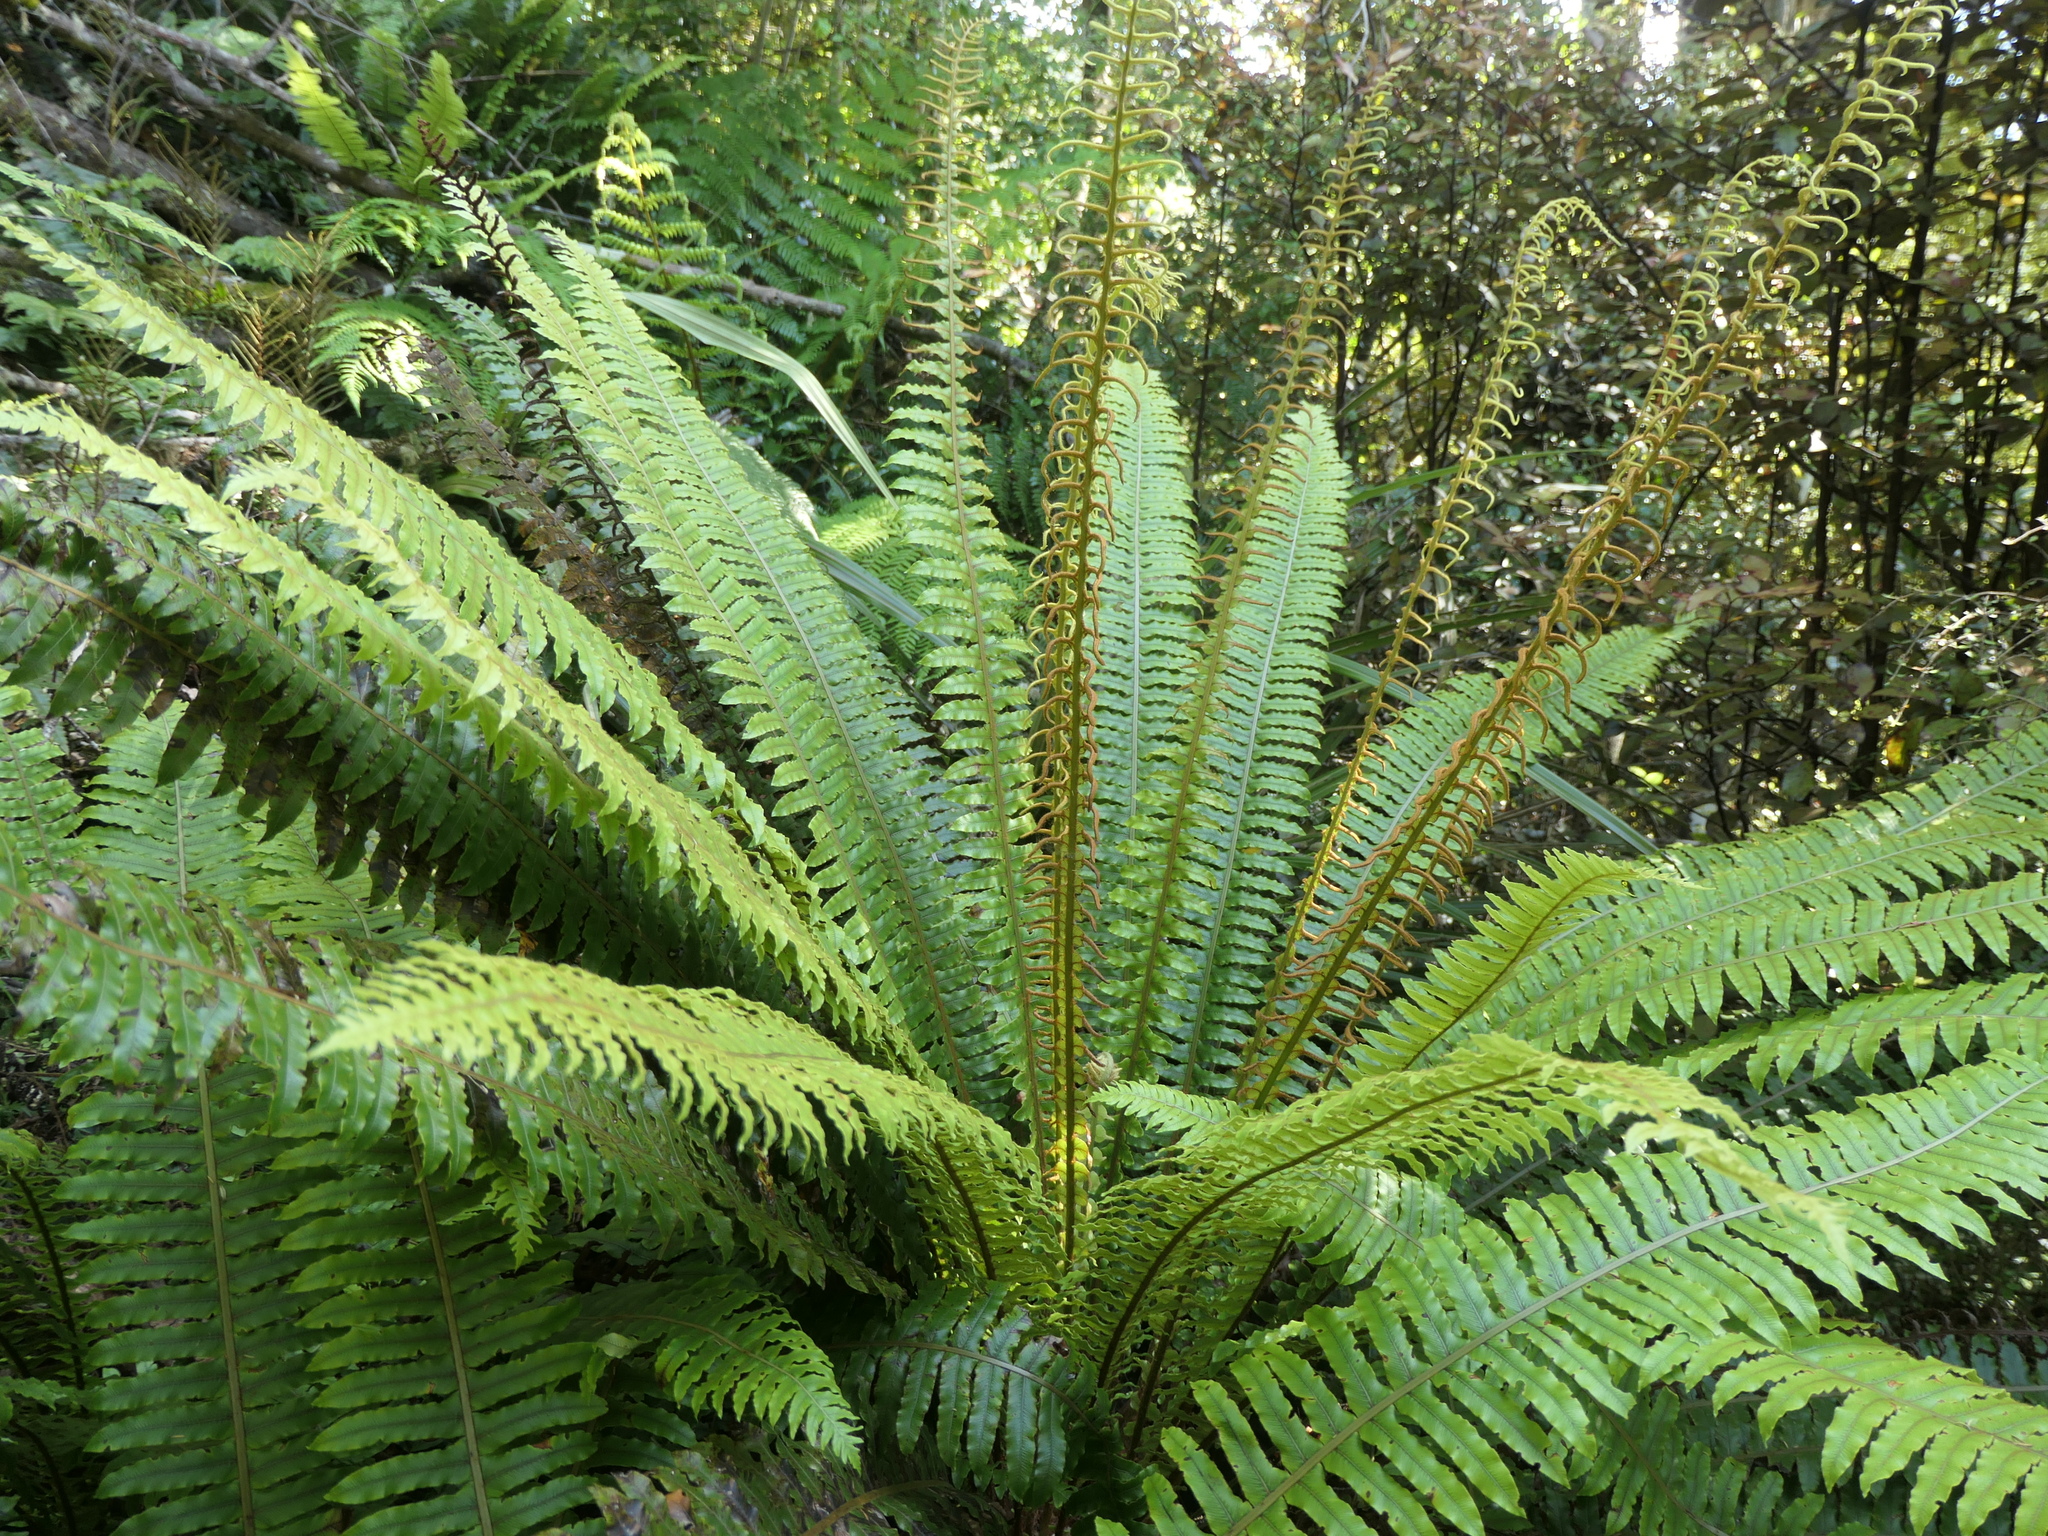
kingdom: Plantae
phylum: Tracheophyta
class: Polypodiopsida
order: Polypodiales
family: Blechnaceae
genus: Lomaria
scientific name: Lomaria discolor
